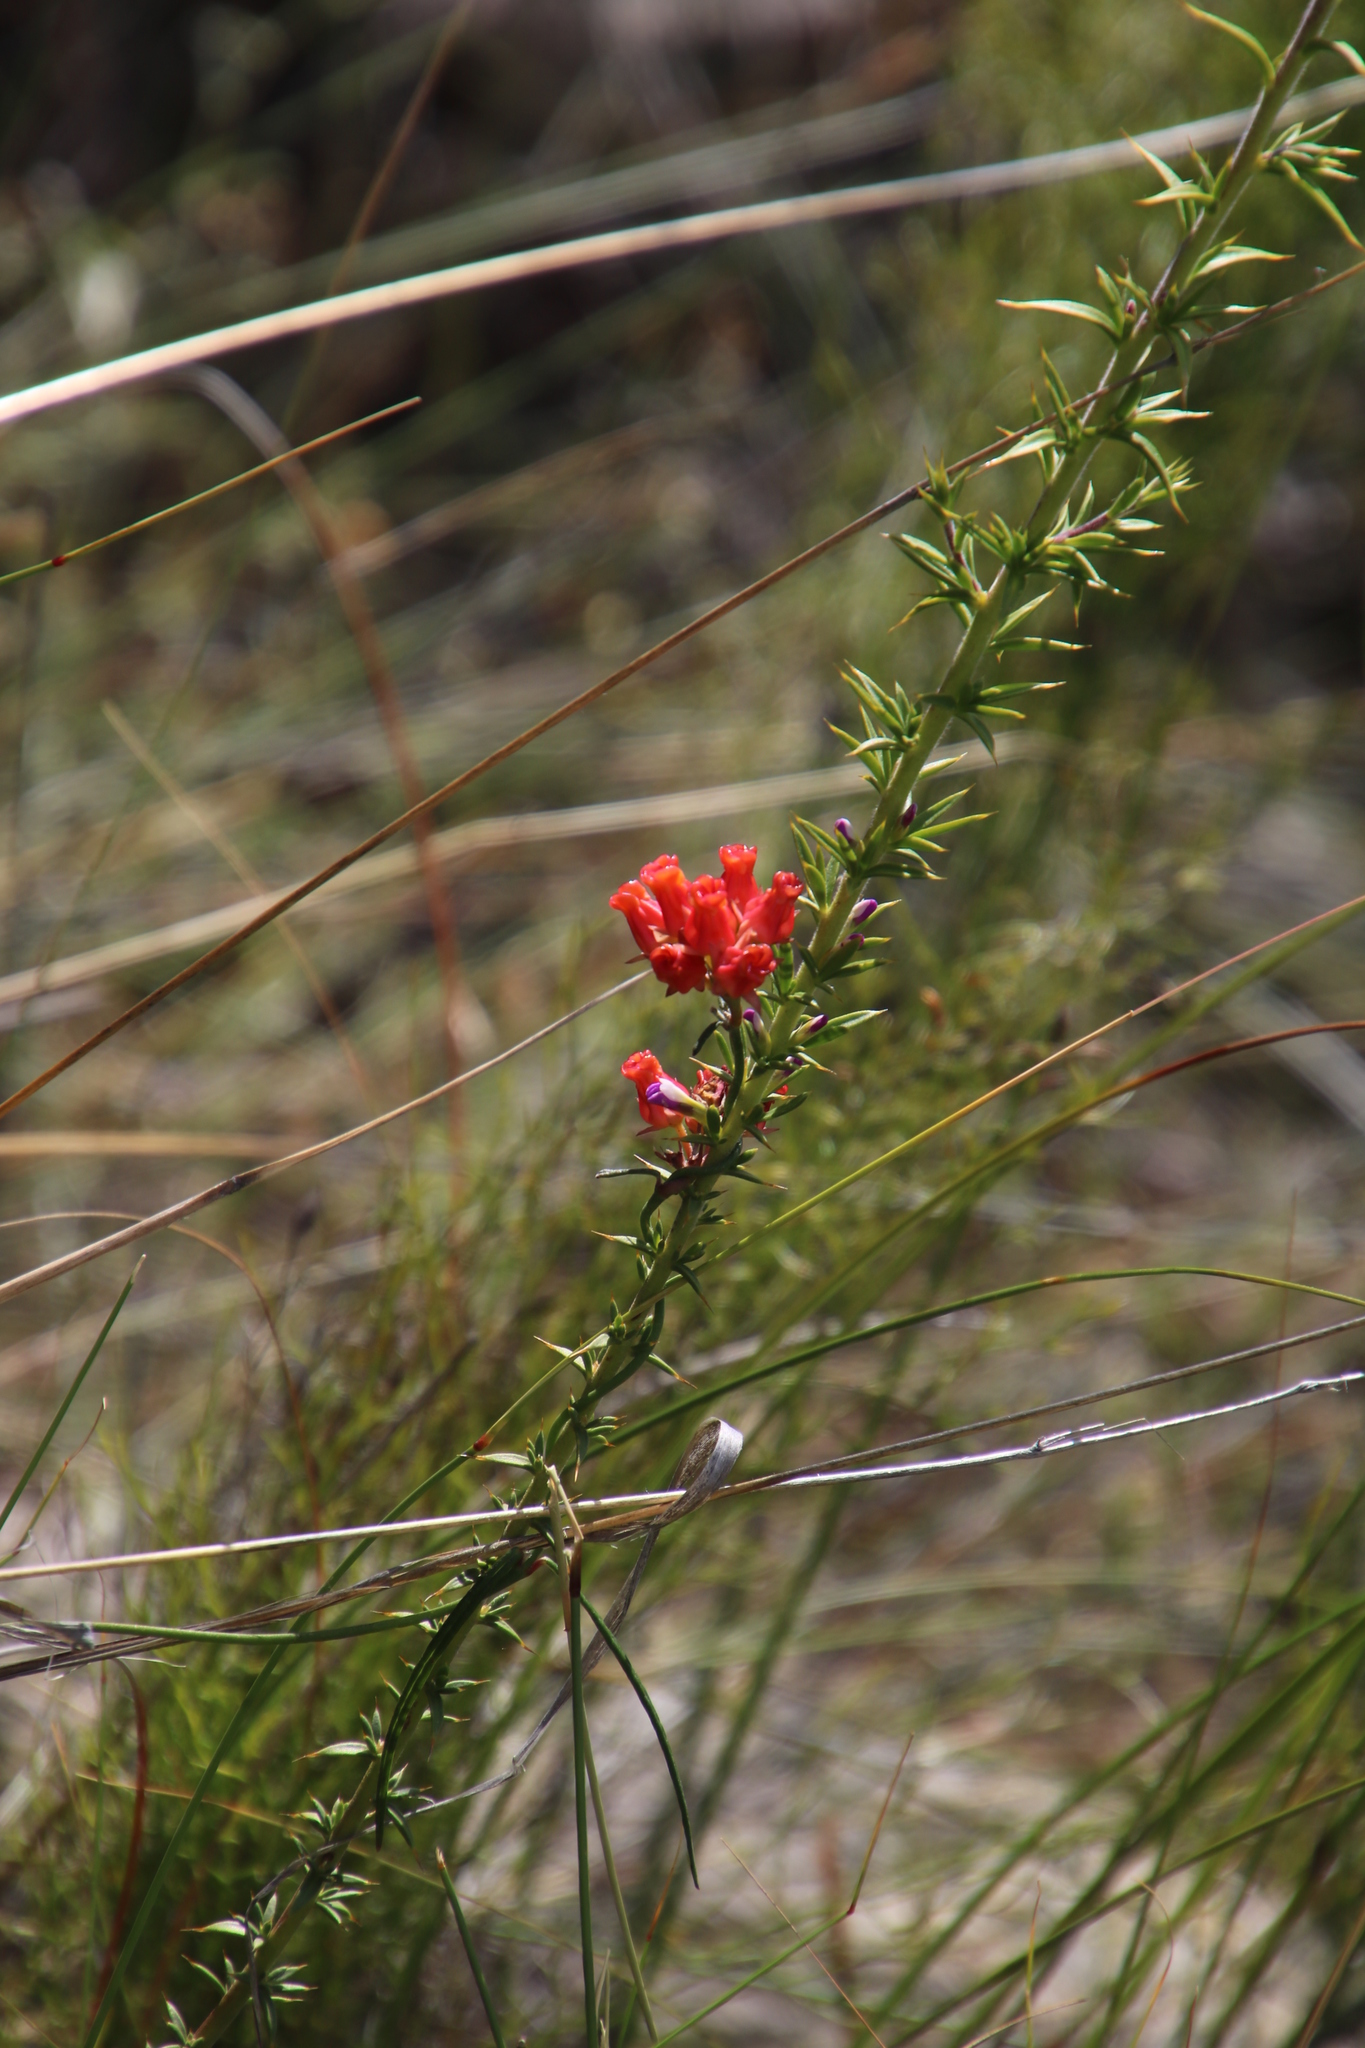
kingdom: Plantae
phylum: Tracheophyta
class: Magnoliopsida
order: Gentianales
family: Apocynaceae
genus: Microloma
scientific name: Microloma tenuifolium
